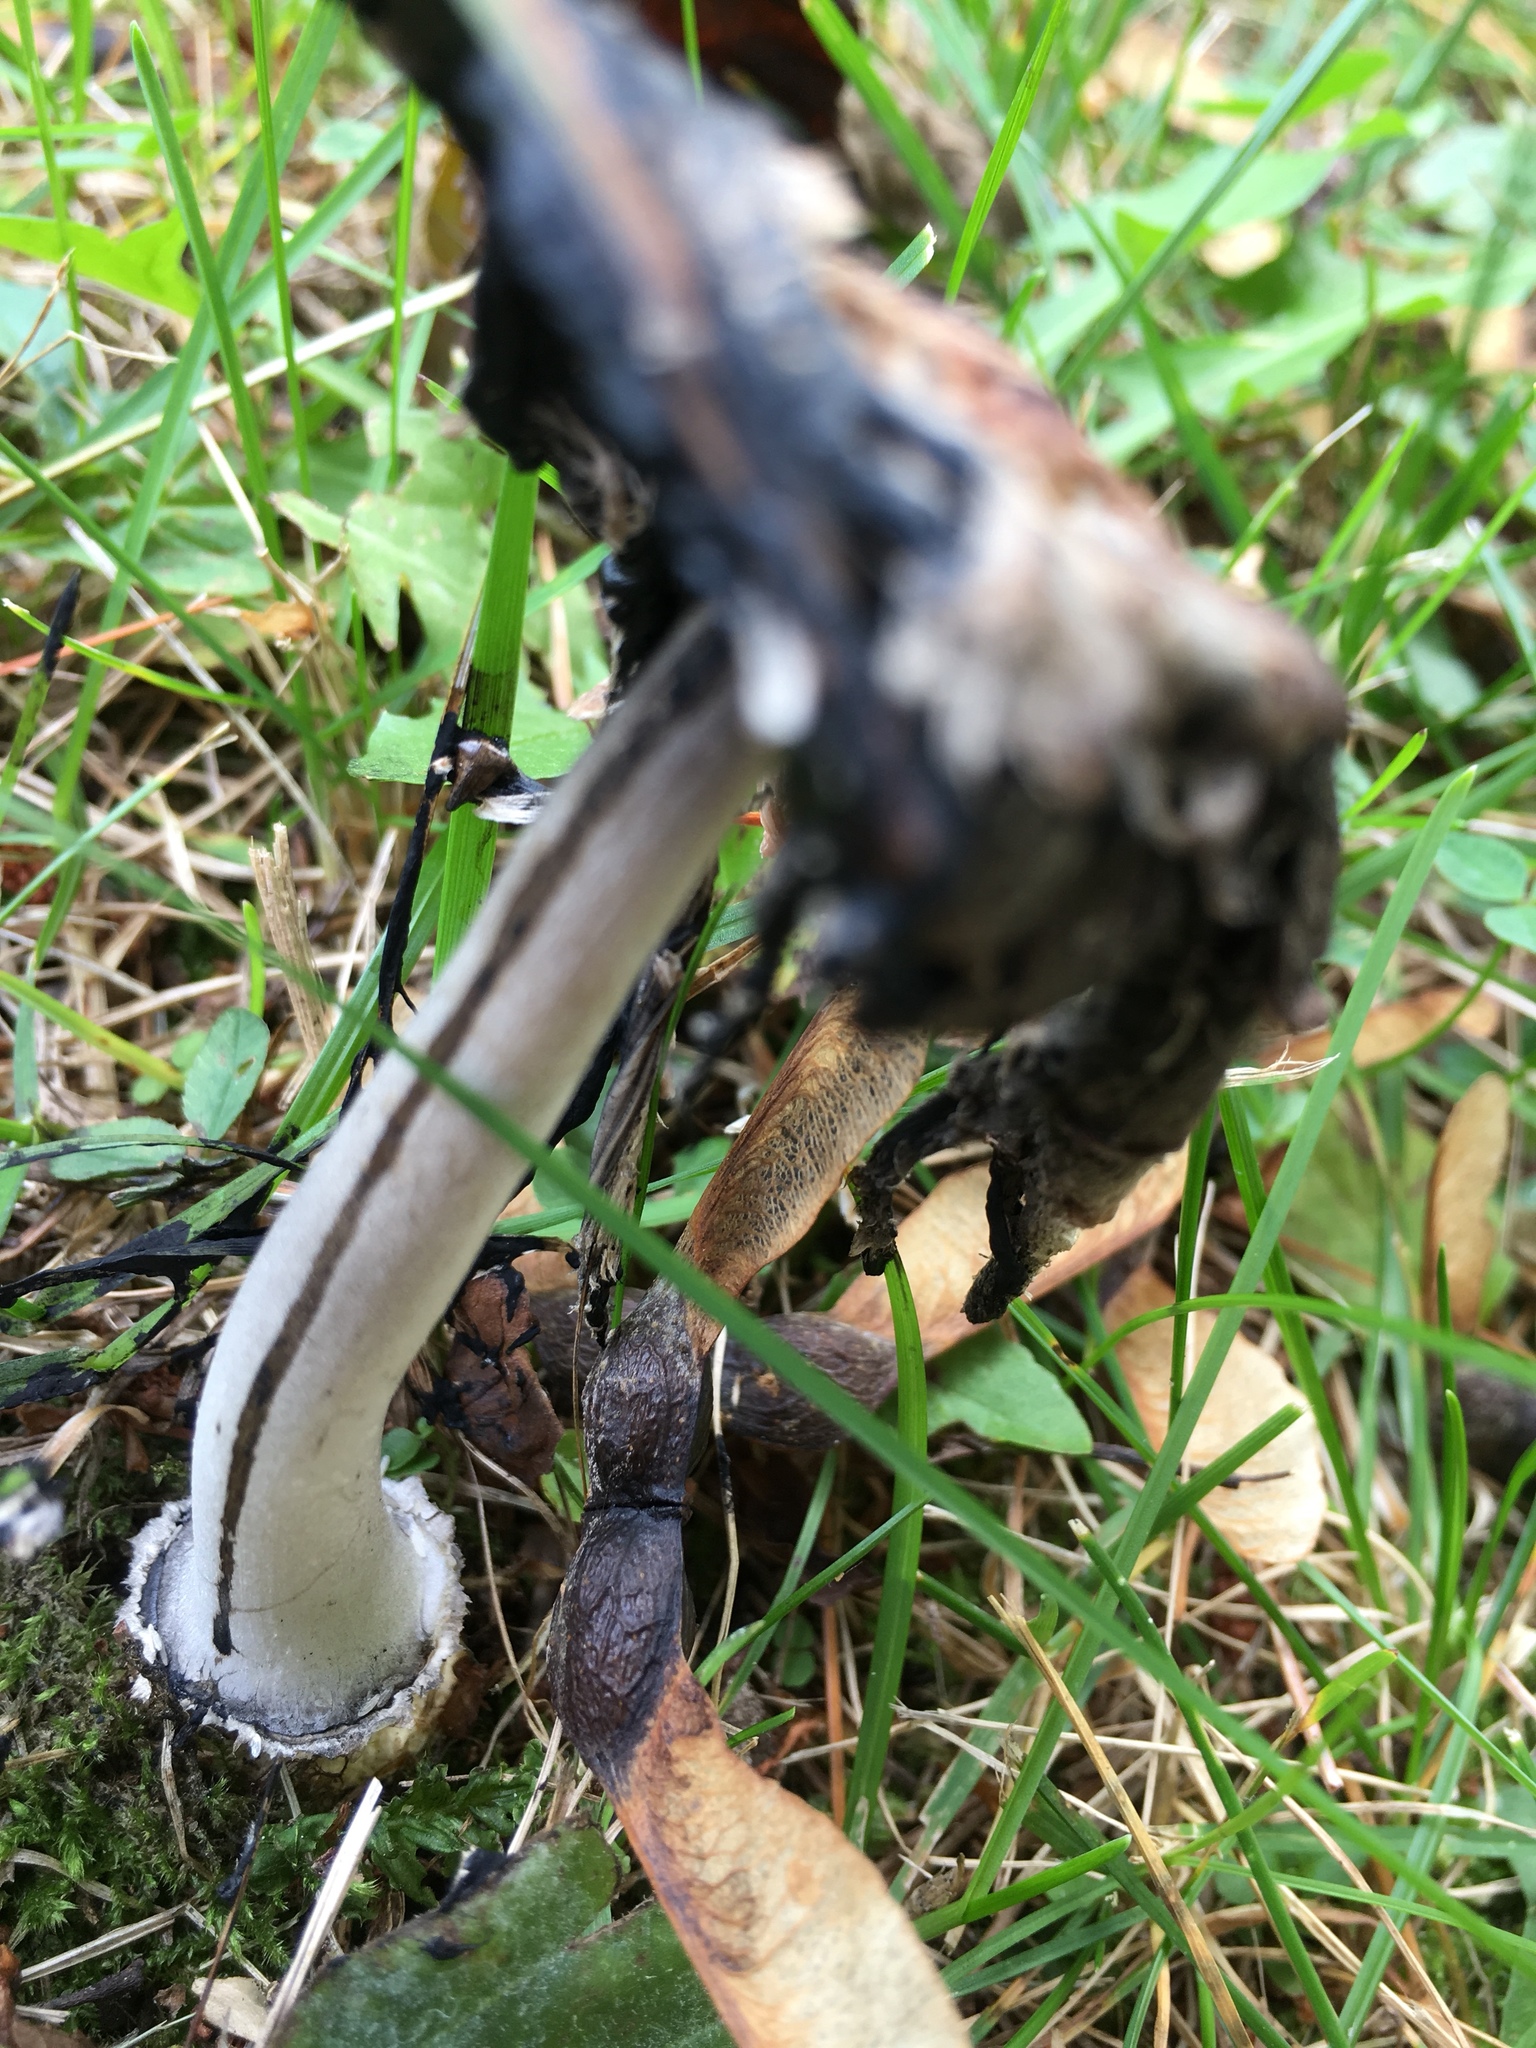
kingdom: Fungi
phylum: Basidiomycota
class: Agaricomycetes
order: Agaricales
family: Agaricaceae
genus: Coprinus
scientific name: Coprinus comatus
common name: Lawyer's wig
